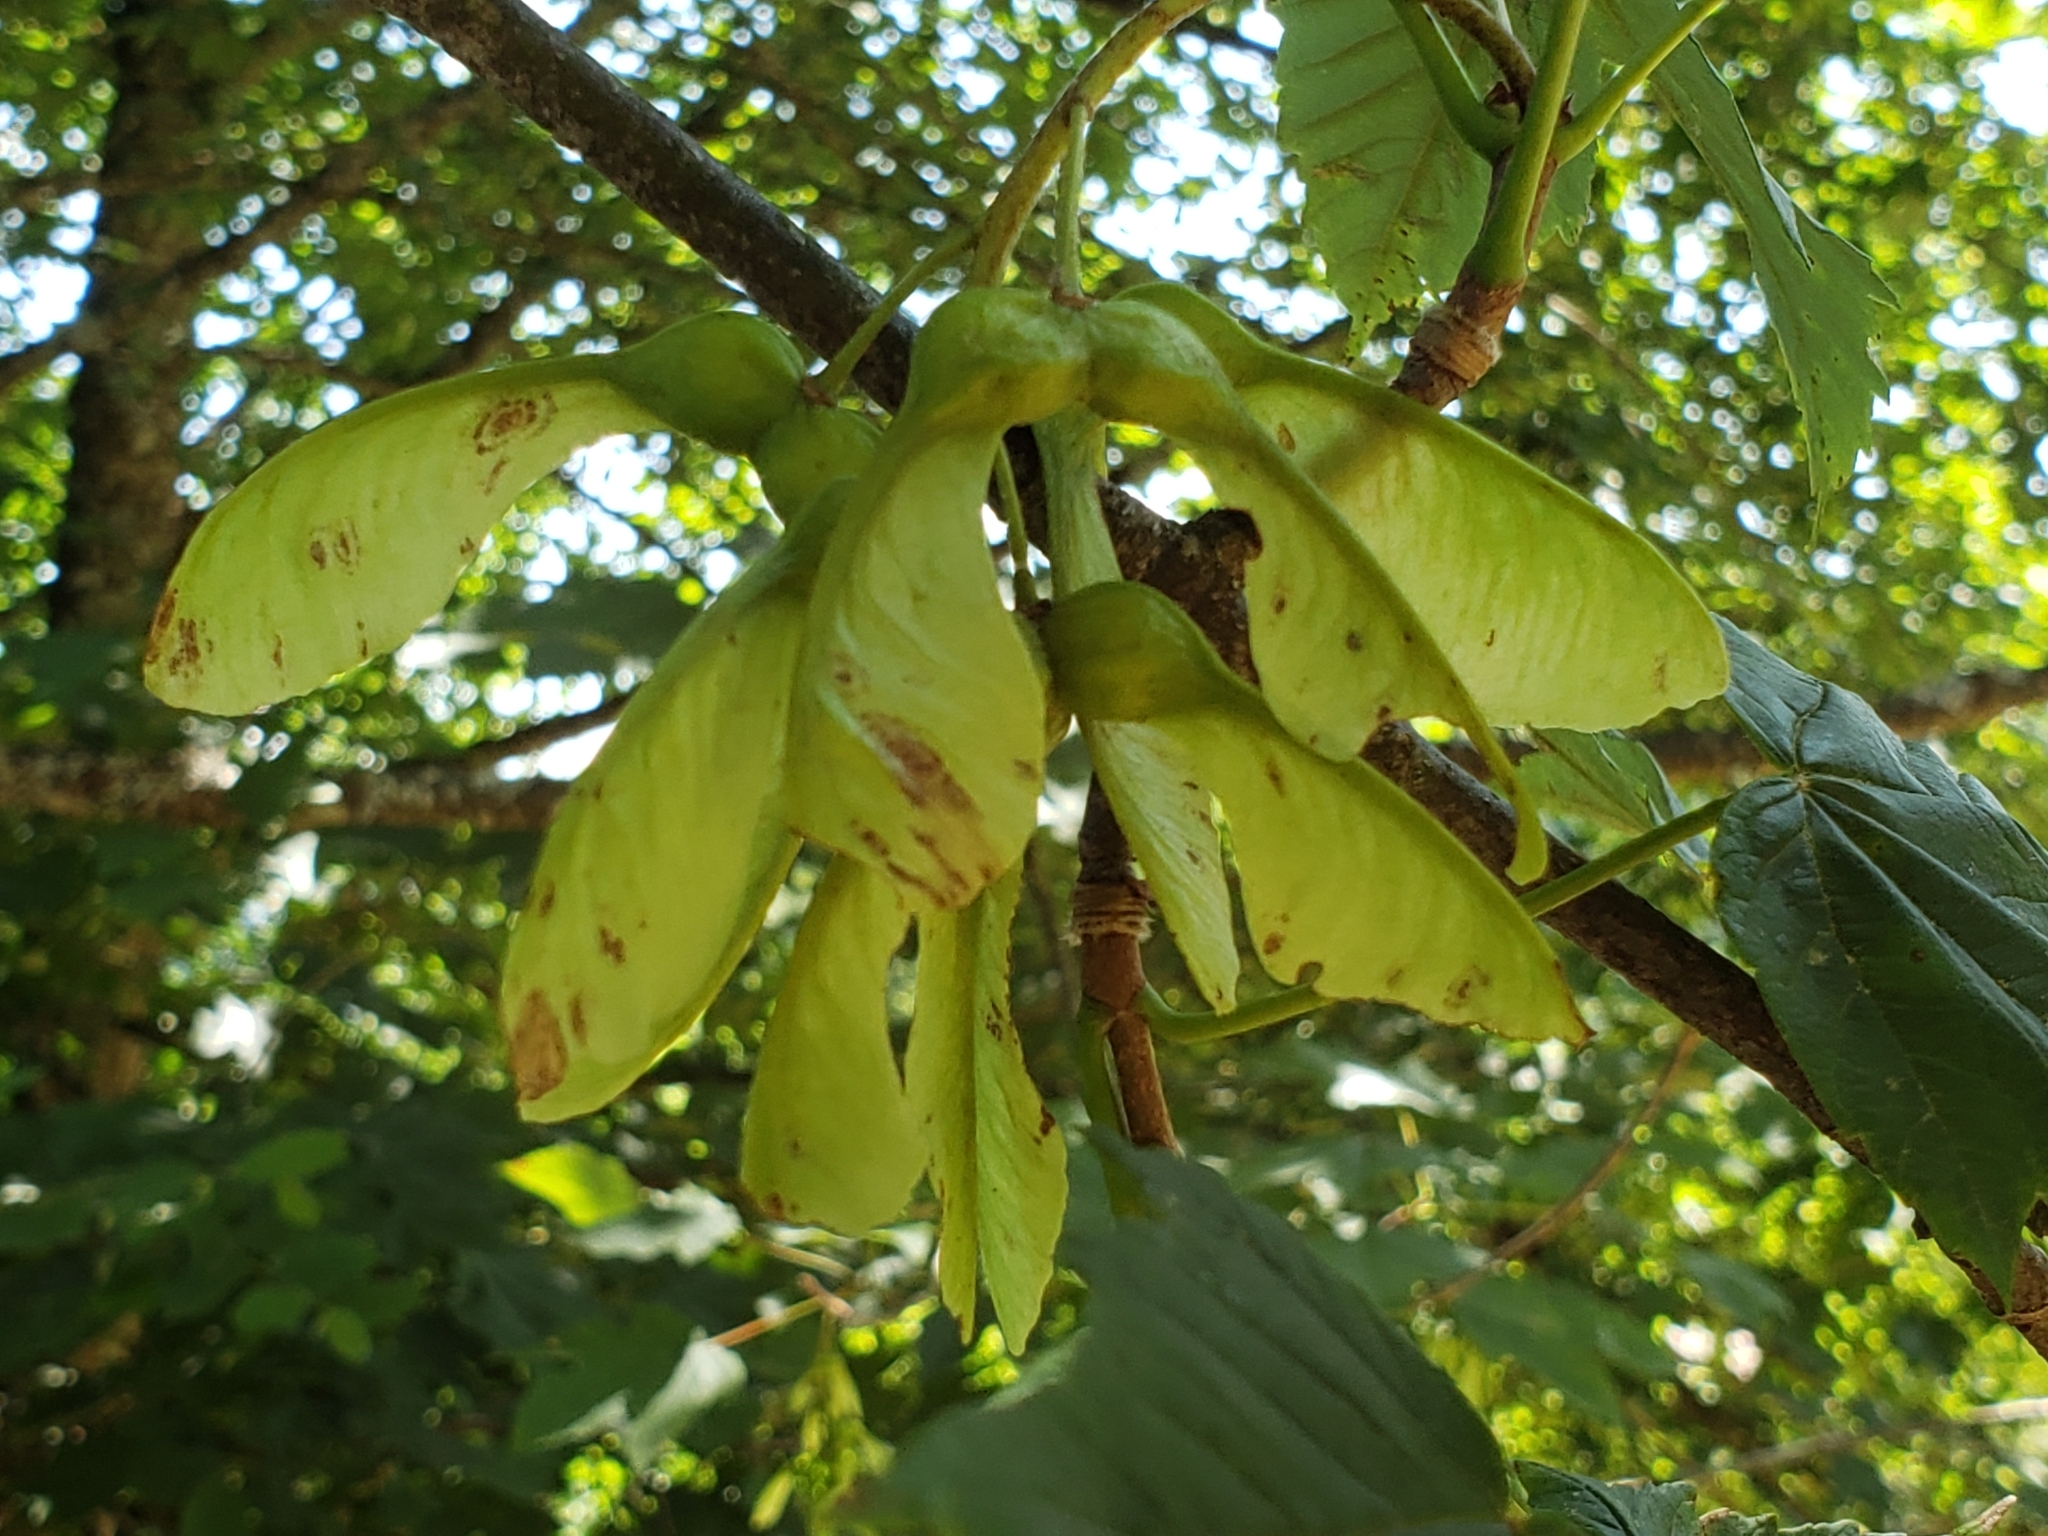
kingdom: Plantae
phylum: Tracheophyta
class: Magnoliopsida
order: Sapindales
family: Sapindaceae
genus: Acer
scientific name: Acer pseudoplatanus
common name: Sycamore
